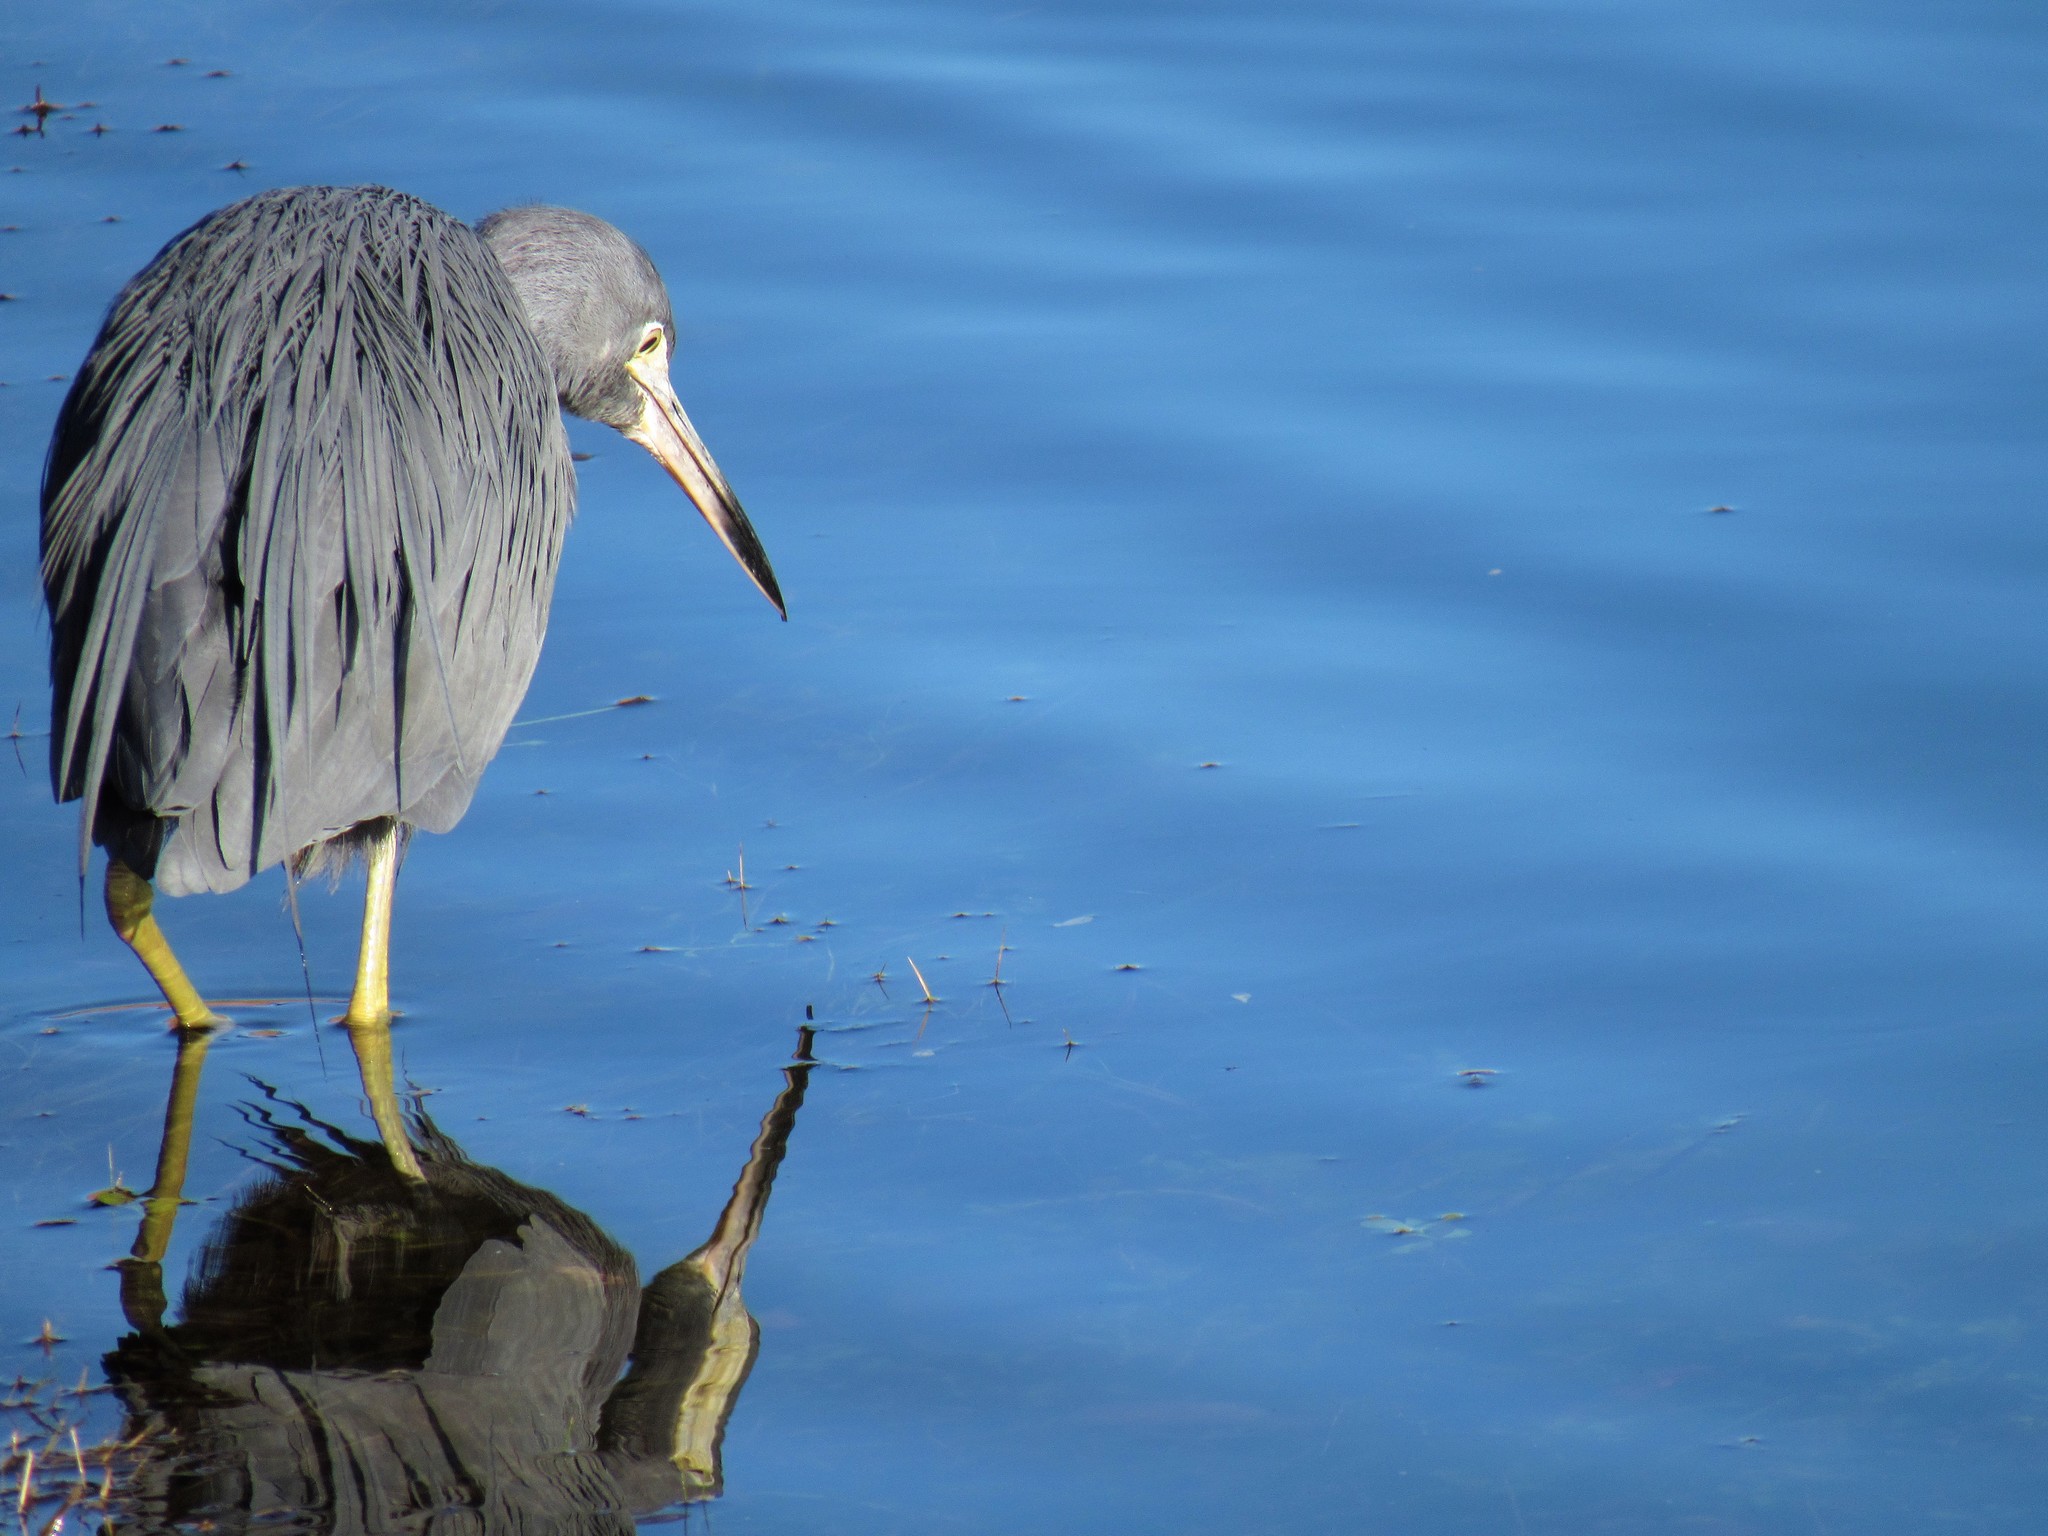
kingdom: Animalia
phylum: Chordata
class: Aves
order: Pelecaniformes
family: Ardeidae
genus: Egretta
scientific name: Egretta caerulea
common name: Little blue heron
